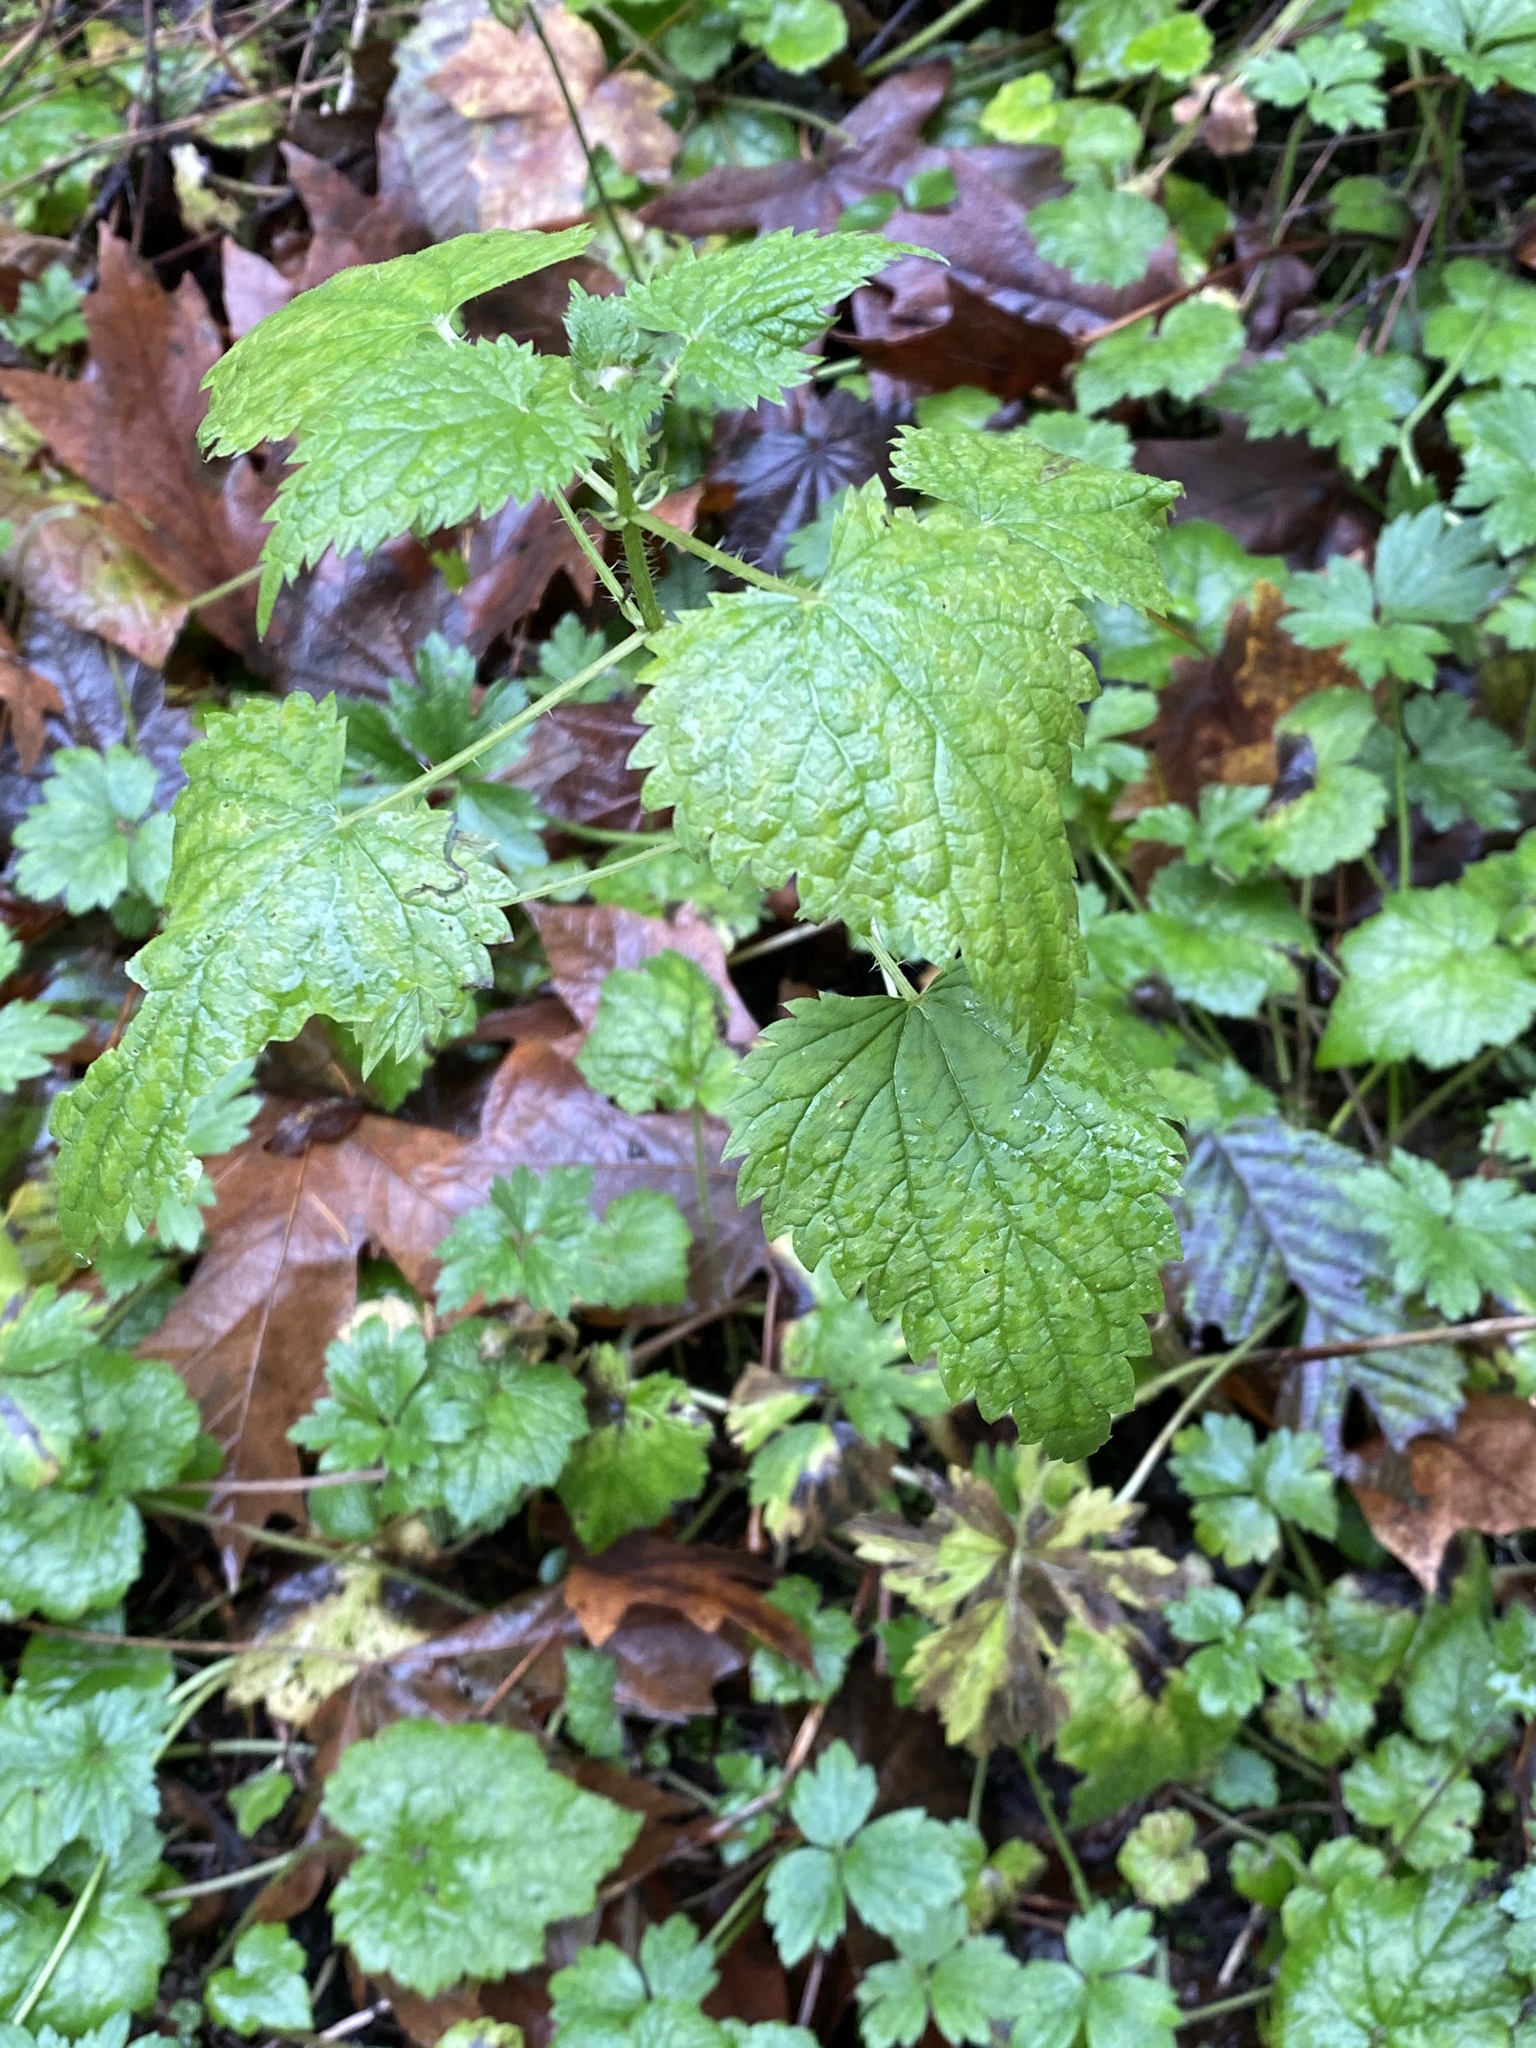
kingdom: Plantae
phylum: Tracheophyta
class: Magnoliopsida
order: Rosales
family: Urticaceae
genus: Urtica
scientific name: Urtica dioica
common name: Common nettle
